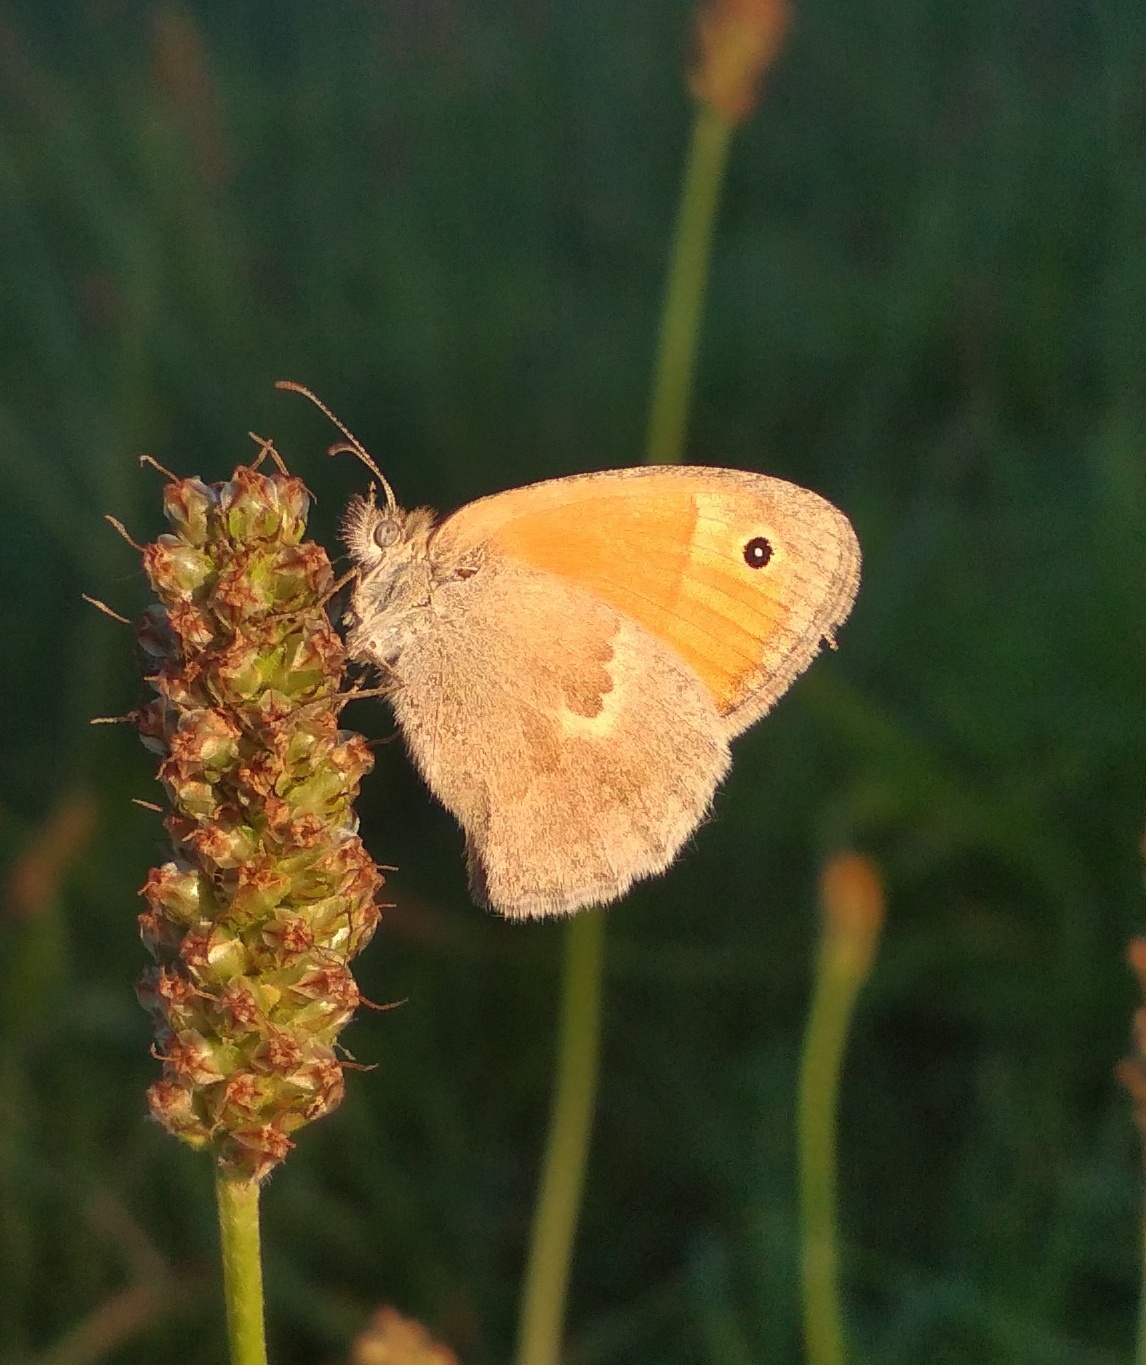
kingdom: Animalia
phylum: Arthropoda
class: Insecta
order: Lepidoptera
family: Nymphalidae
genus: Coenonympha
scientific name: Coenonympha pamphilus
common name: Small heath
